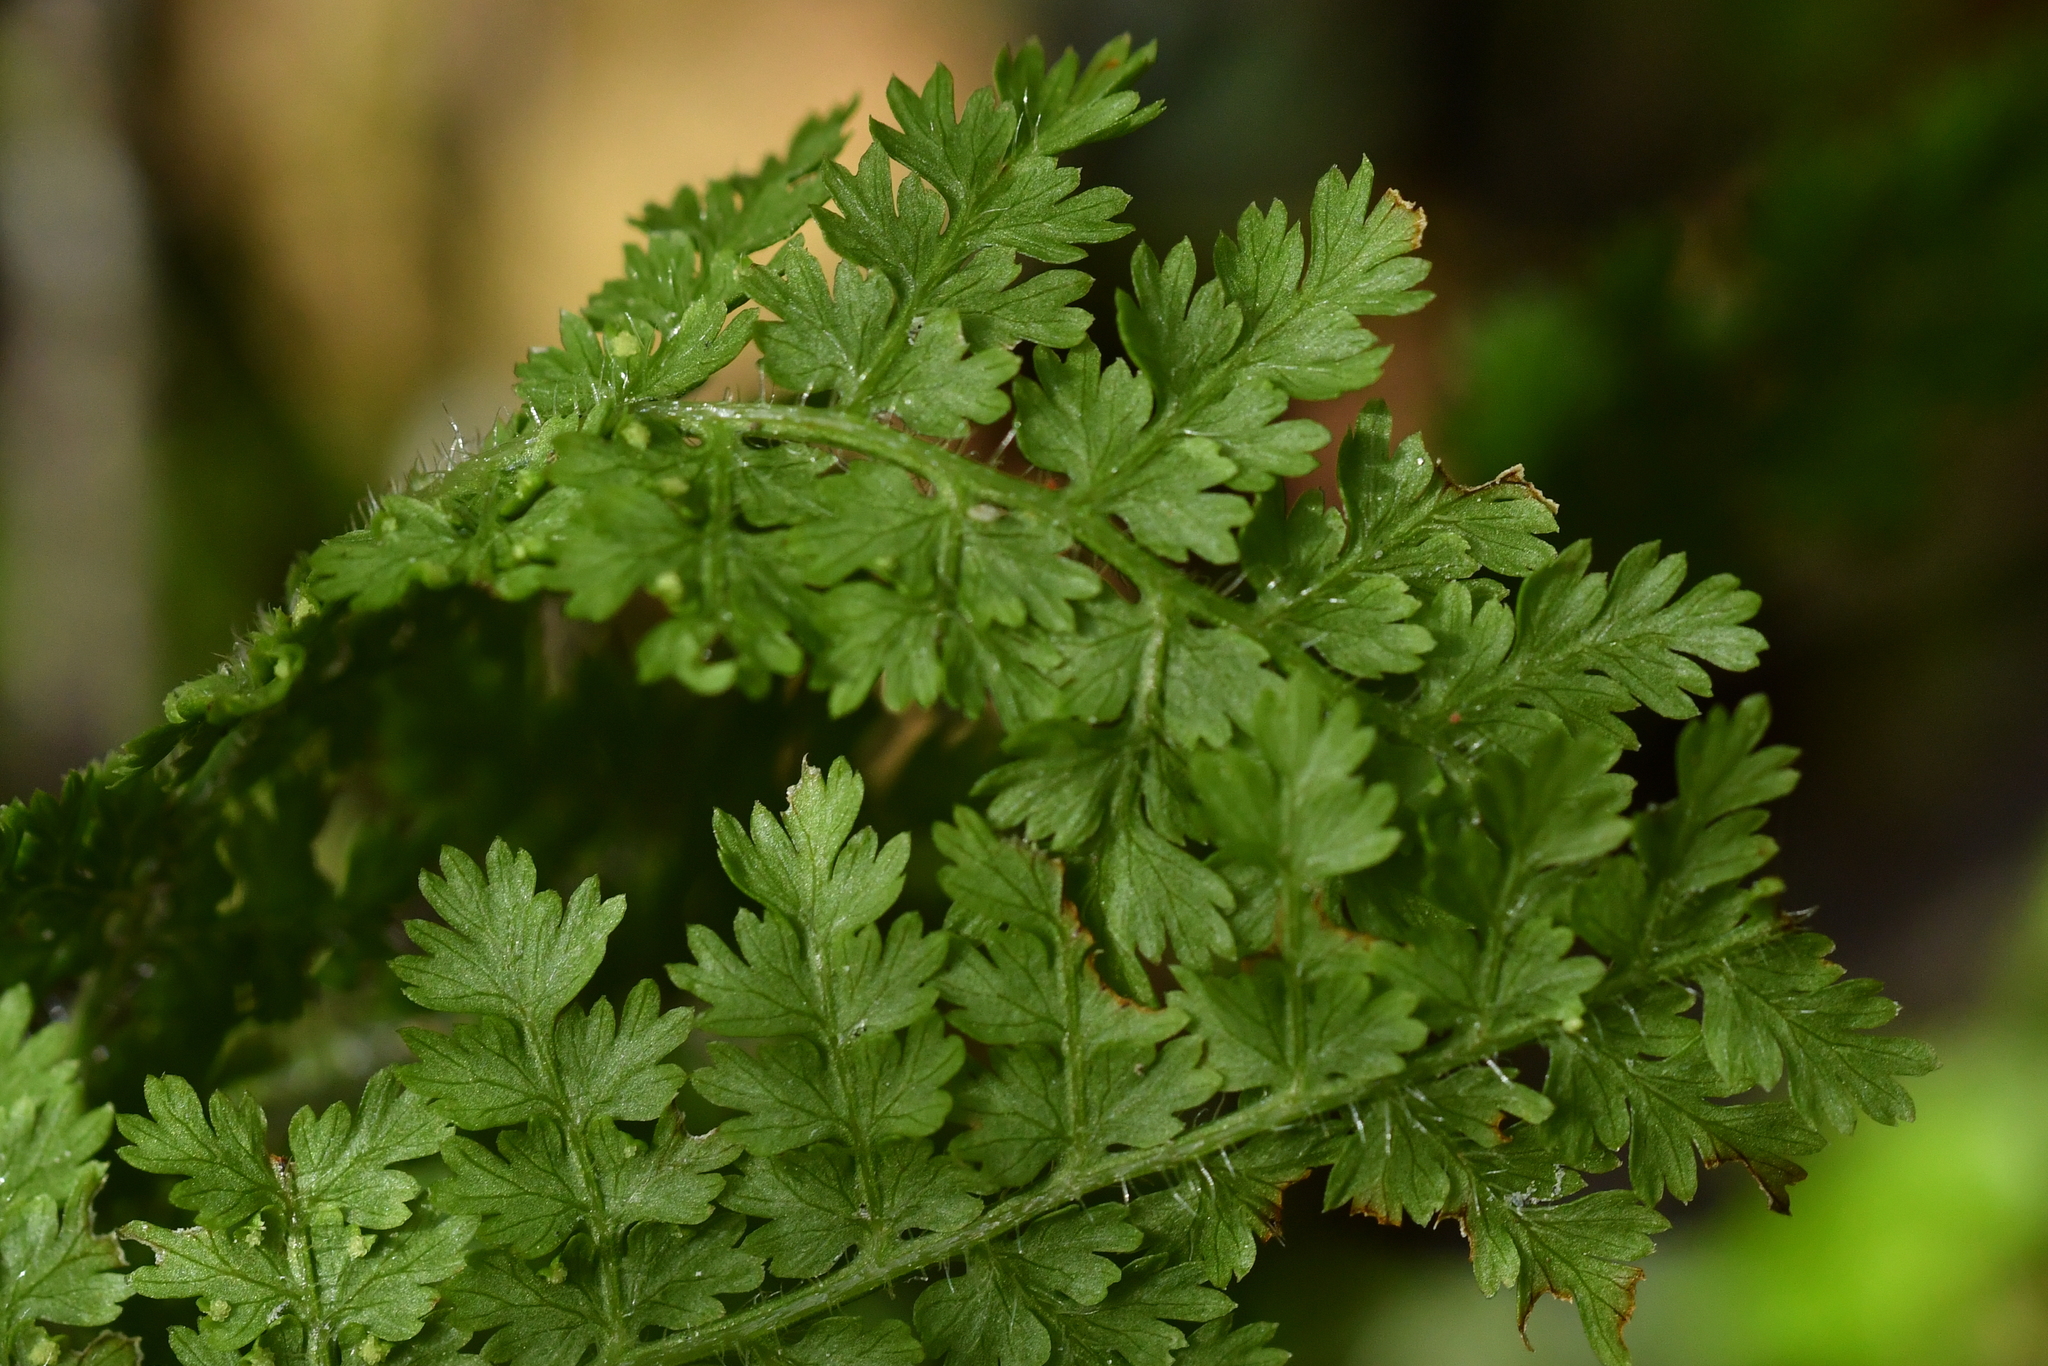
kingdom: Plantae
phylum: Tracheophyta
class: Polypodiopsida
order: Polypodiales
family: Dennstaedtiaceae
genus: Hypolepis
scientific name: Hypolepis millefolium
